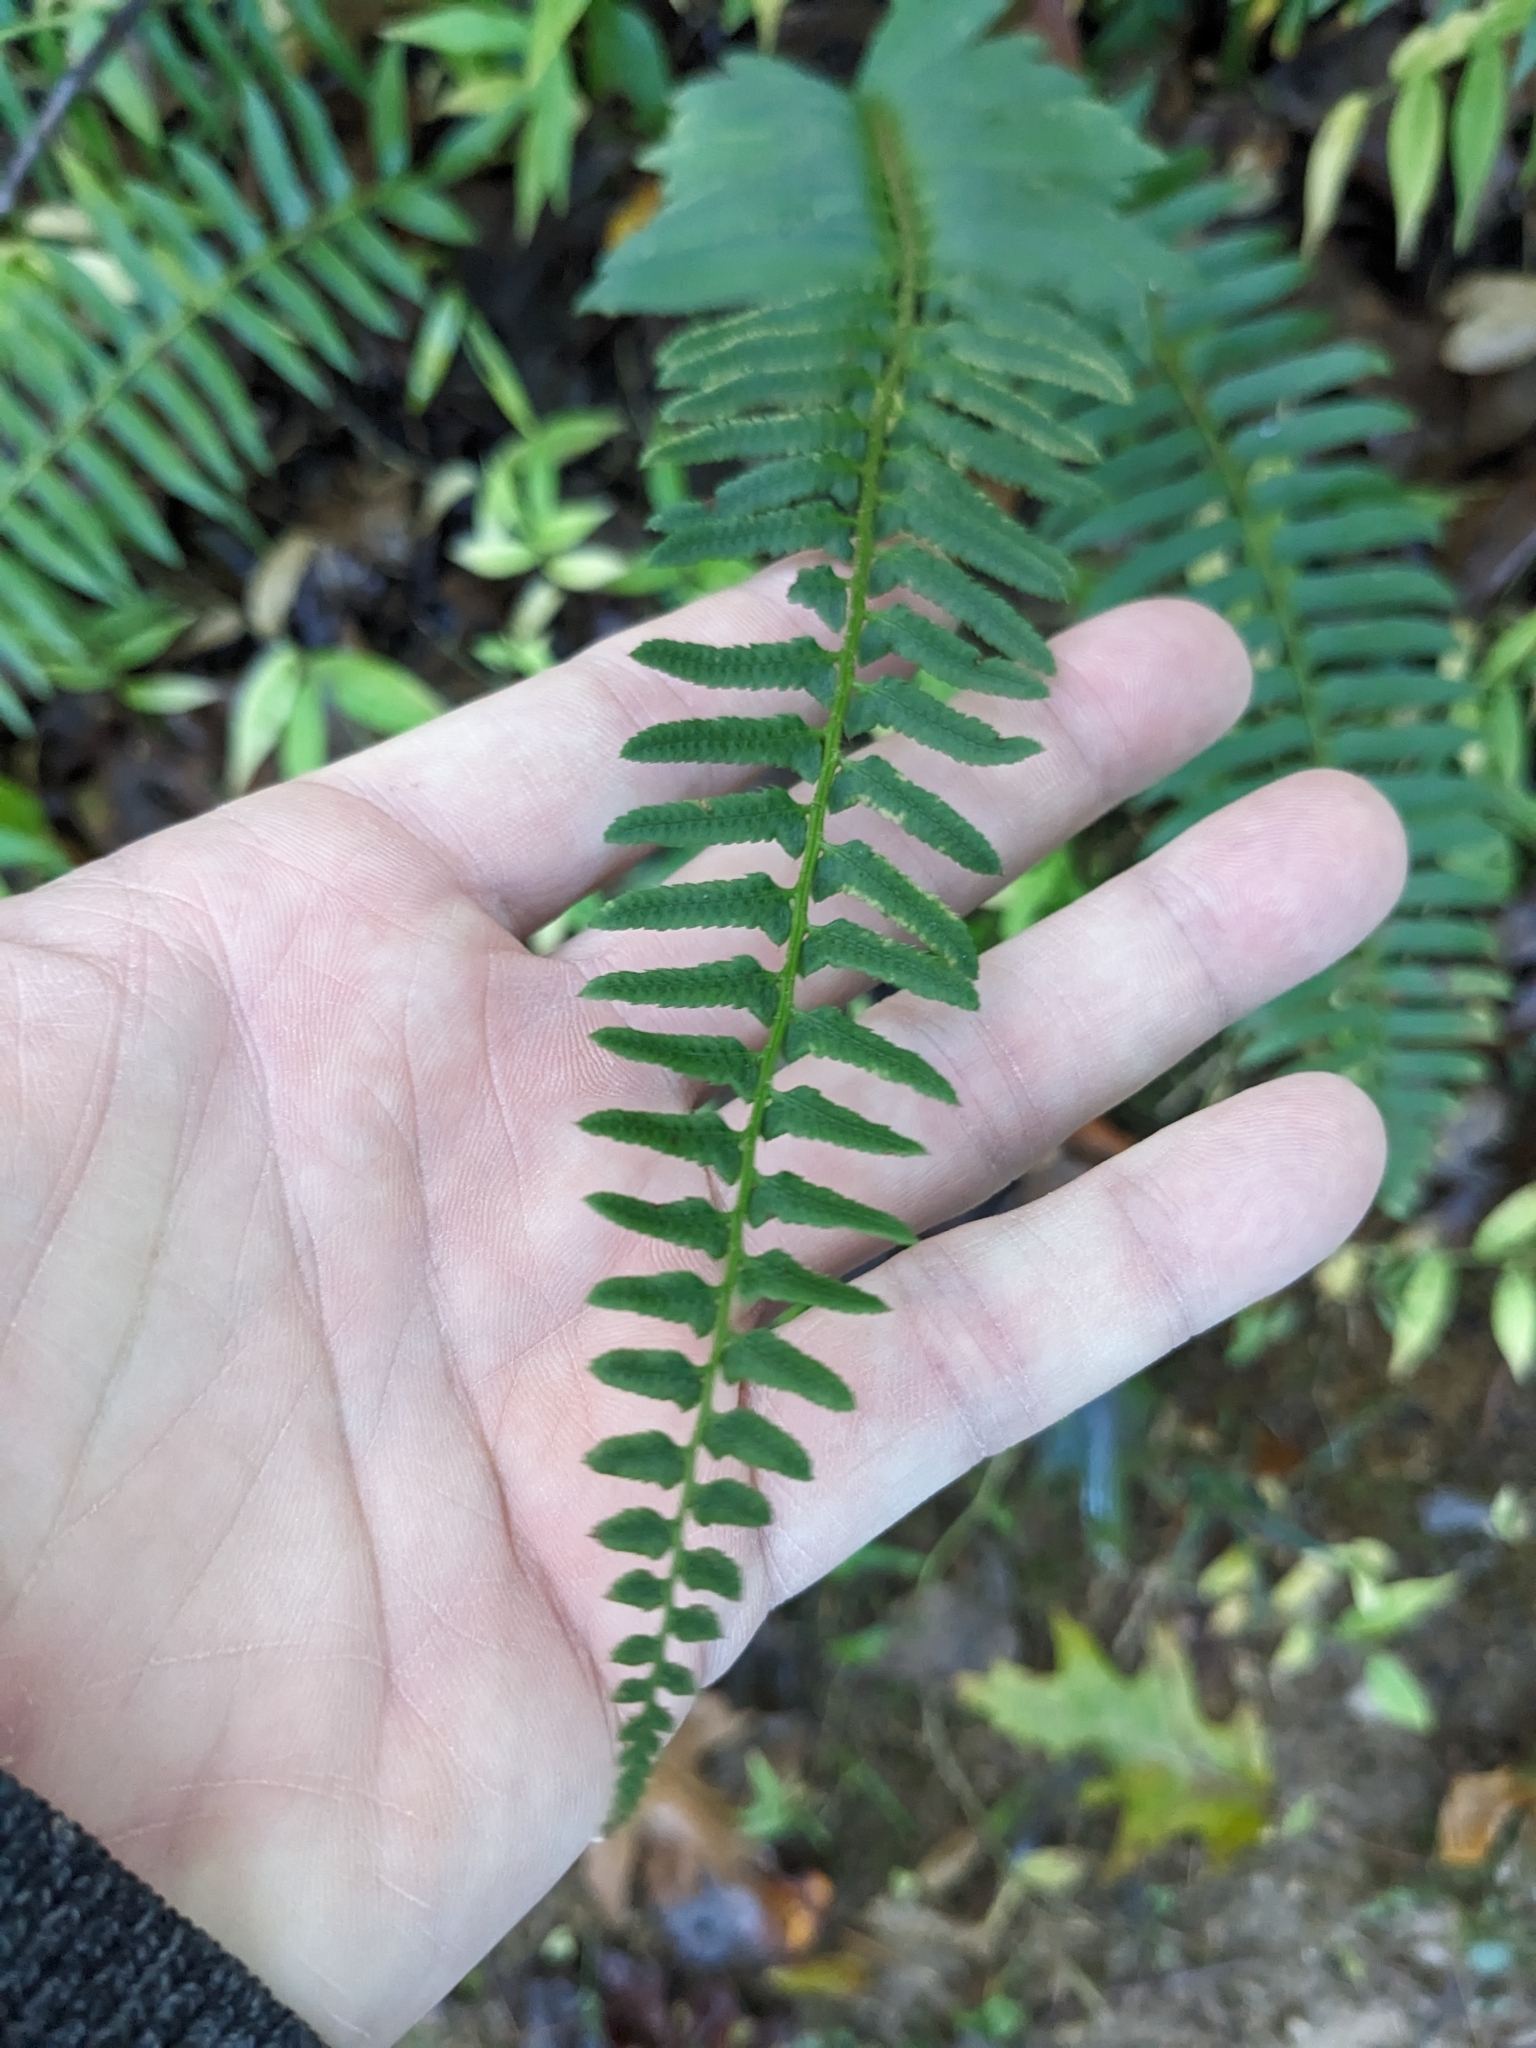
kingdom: Plantae
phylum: Tracheophyta
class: Polypodiopsida
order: Polypodiales
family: Dryopteridaceae
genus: Polystichum
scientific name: Polystichum acrostichoides
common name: Christmas fern
